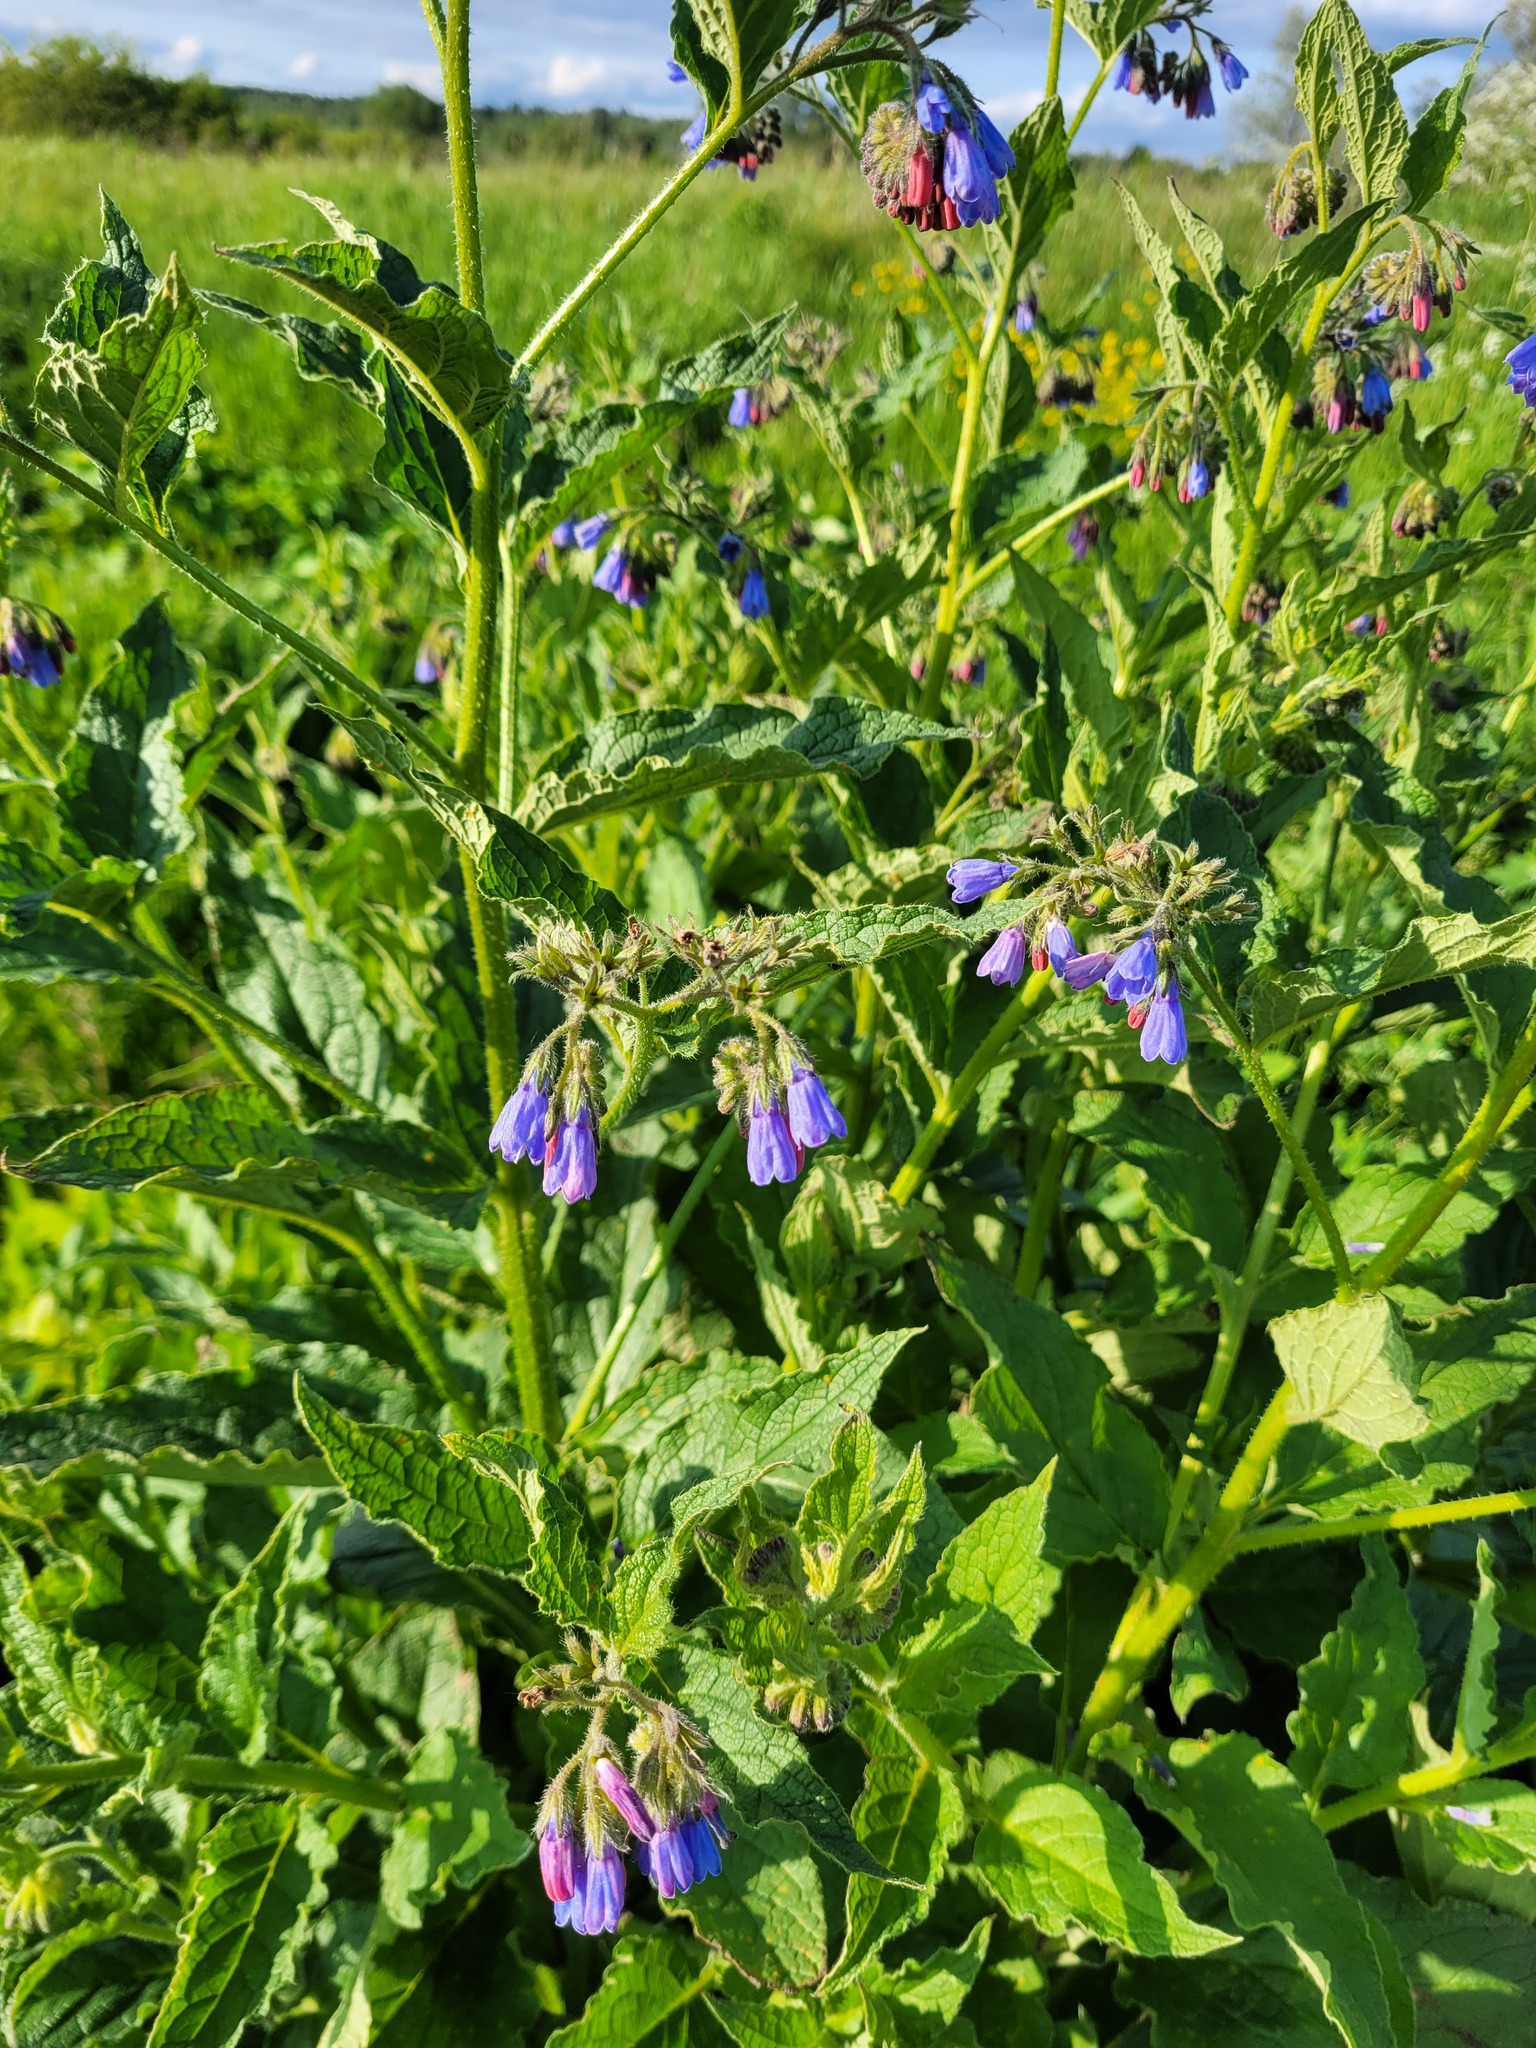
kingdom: Plantae
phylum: Tracheophyta
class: Magnoliopsida
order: Boraginales
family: Boraginaceae
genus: Symphytum
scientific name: Symphytum asperum
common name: Prickly comfrey
